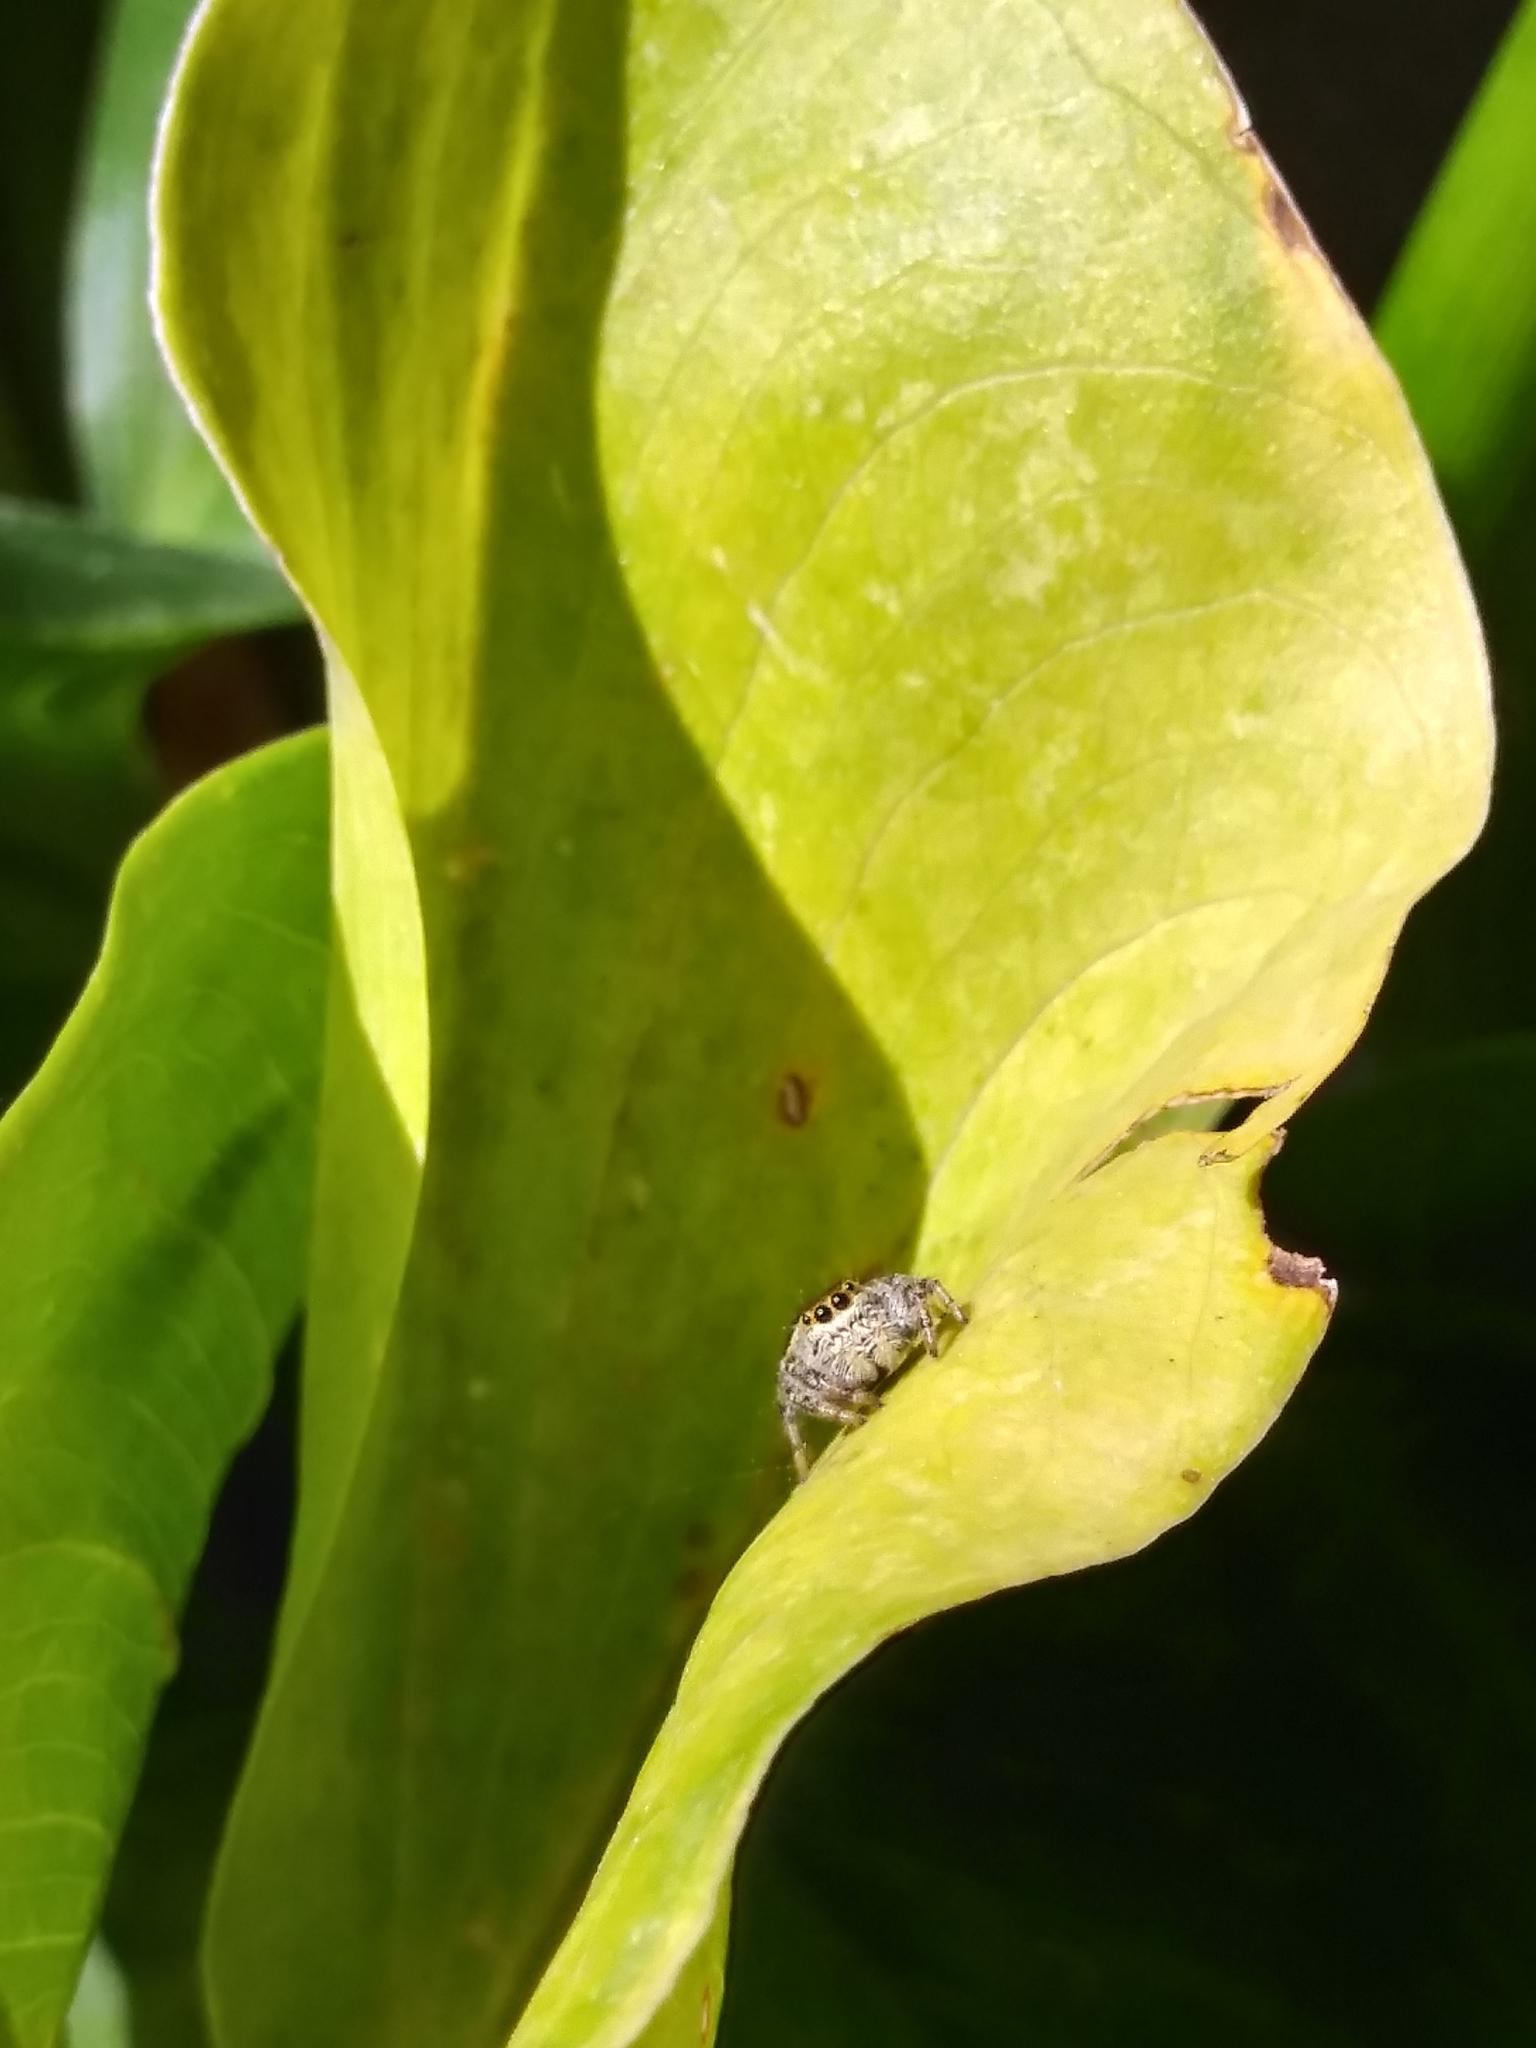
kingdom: Animalia
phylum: Arthropoda
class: Arachnida
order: Araneae
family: Salticidae
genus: Paraphidippus
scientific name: Paraphidippus aurantius
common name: Jumping spiders
